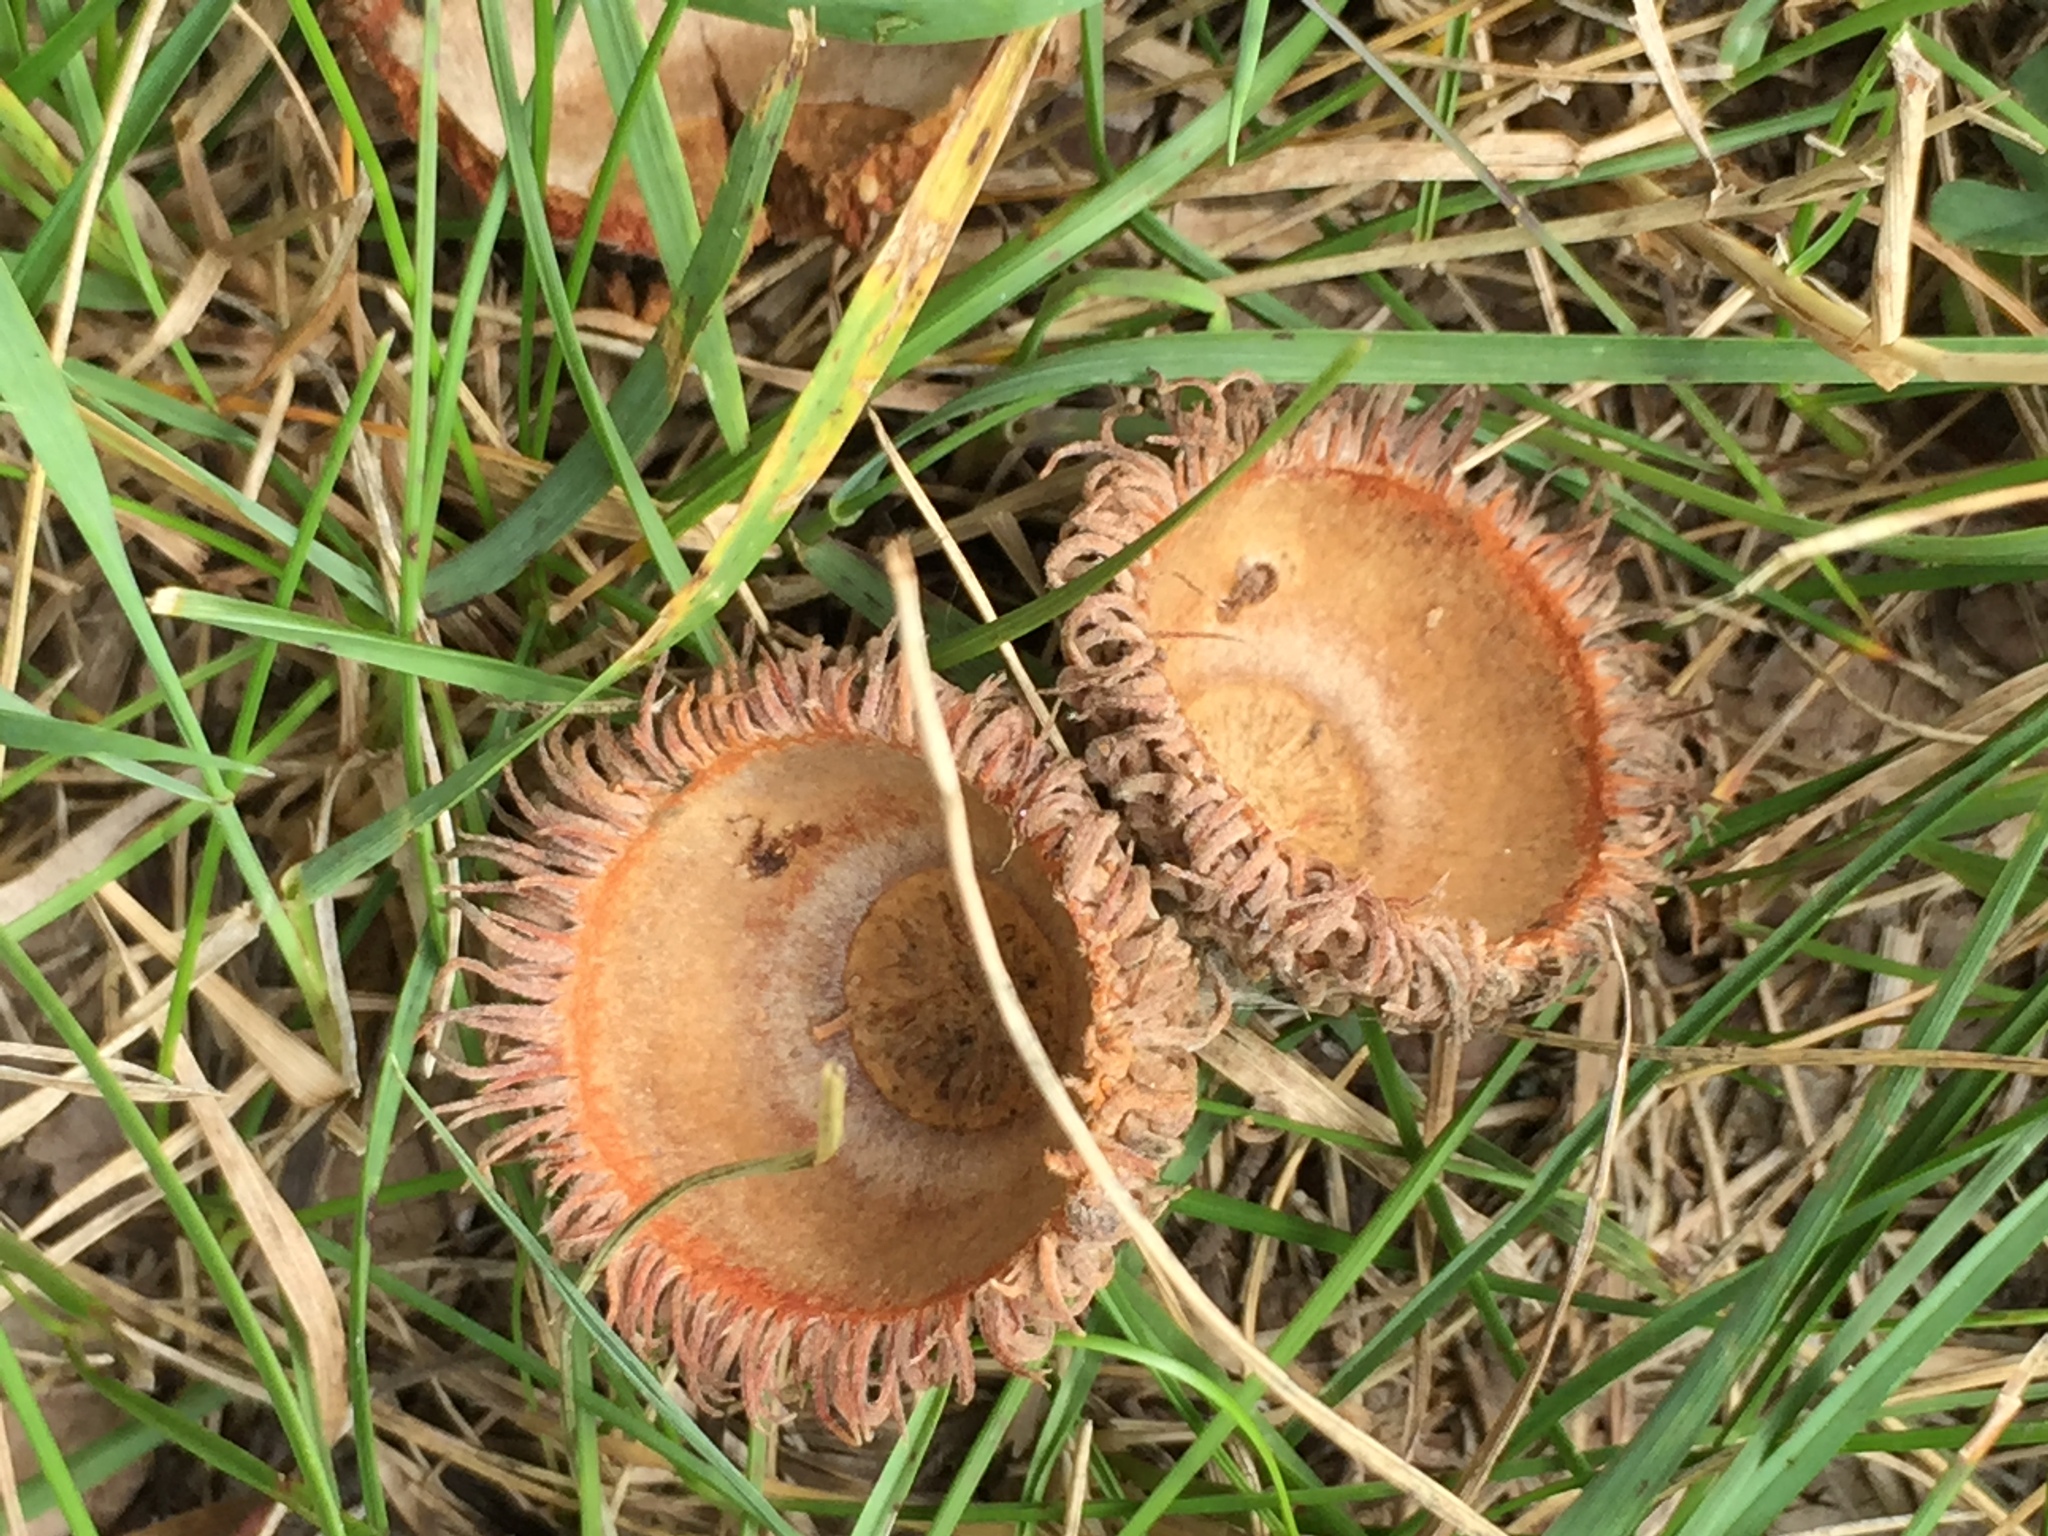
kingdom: Plantae
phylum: Tracheophyta
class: Magnoliopsida
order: Fagales
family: Fagaceae
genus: Quercus
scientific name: Quercus macrocarpa
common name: Bur oak
